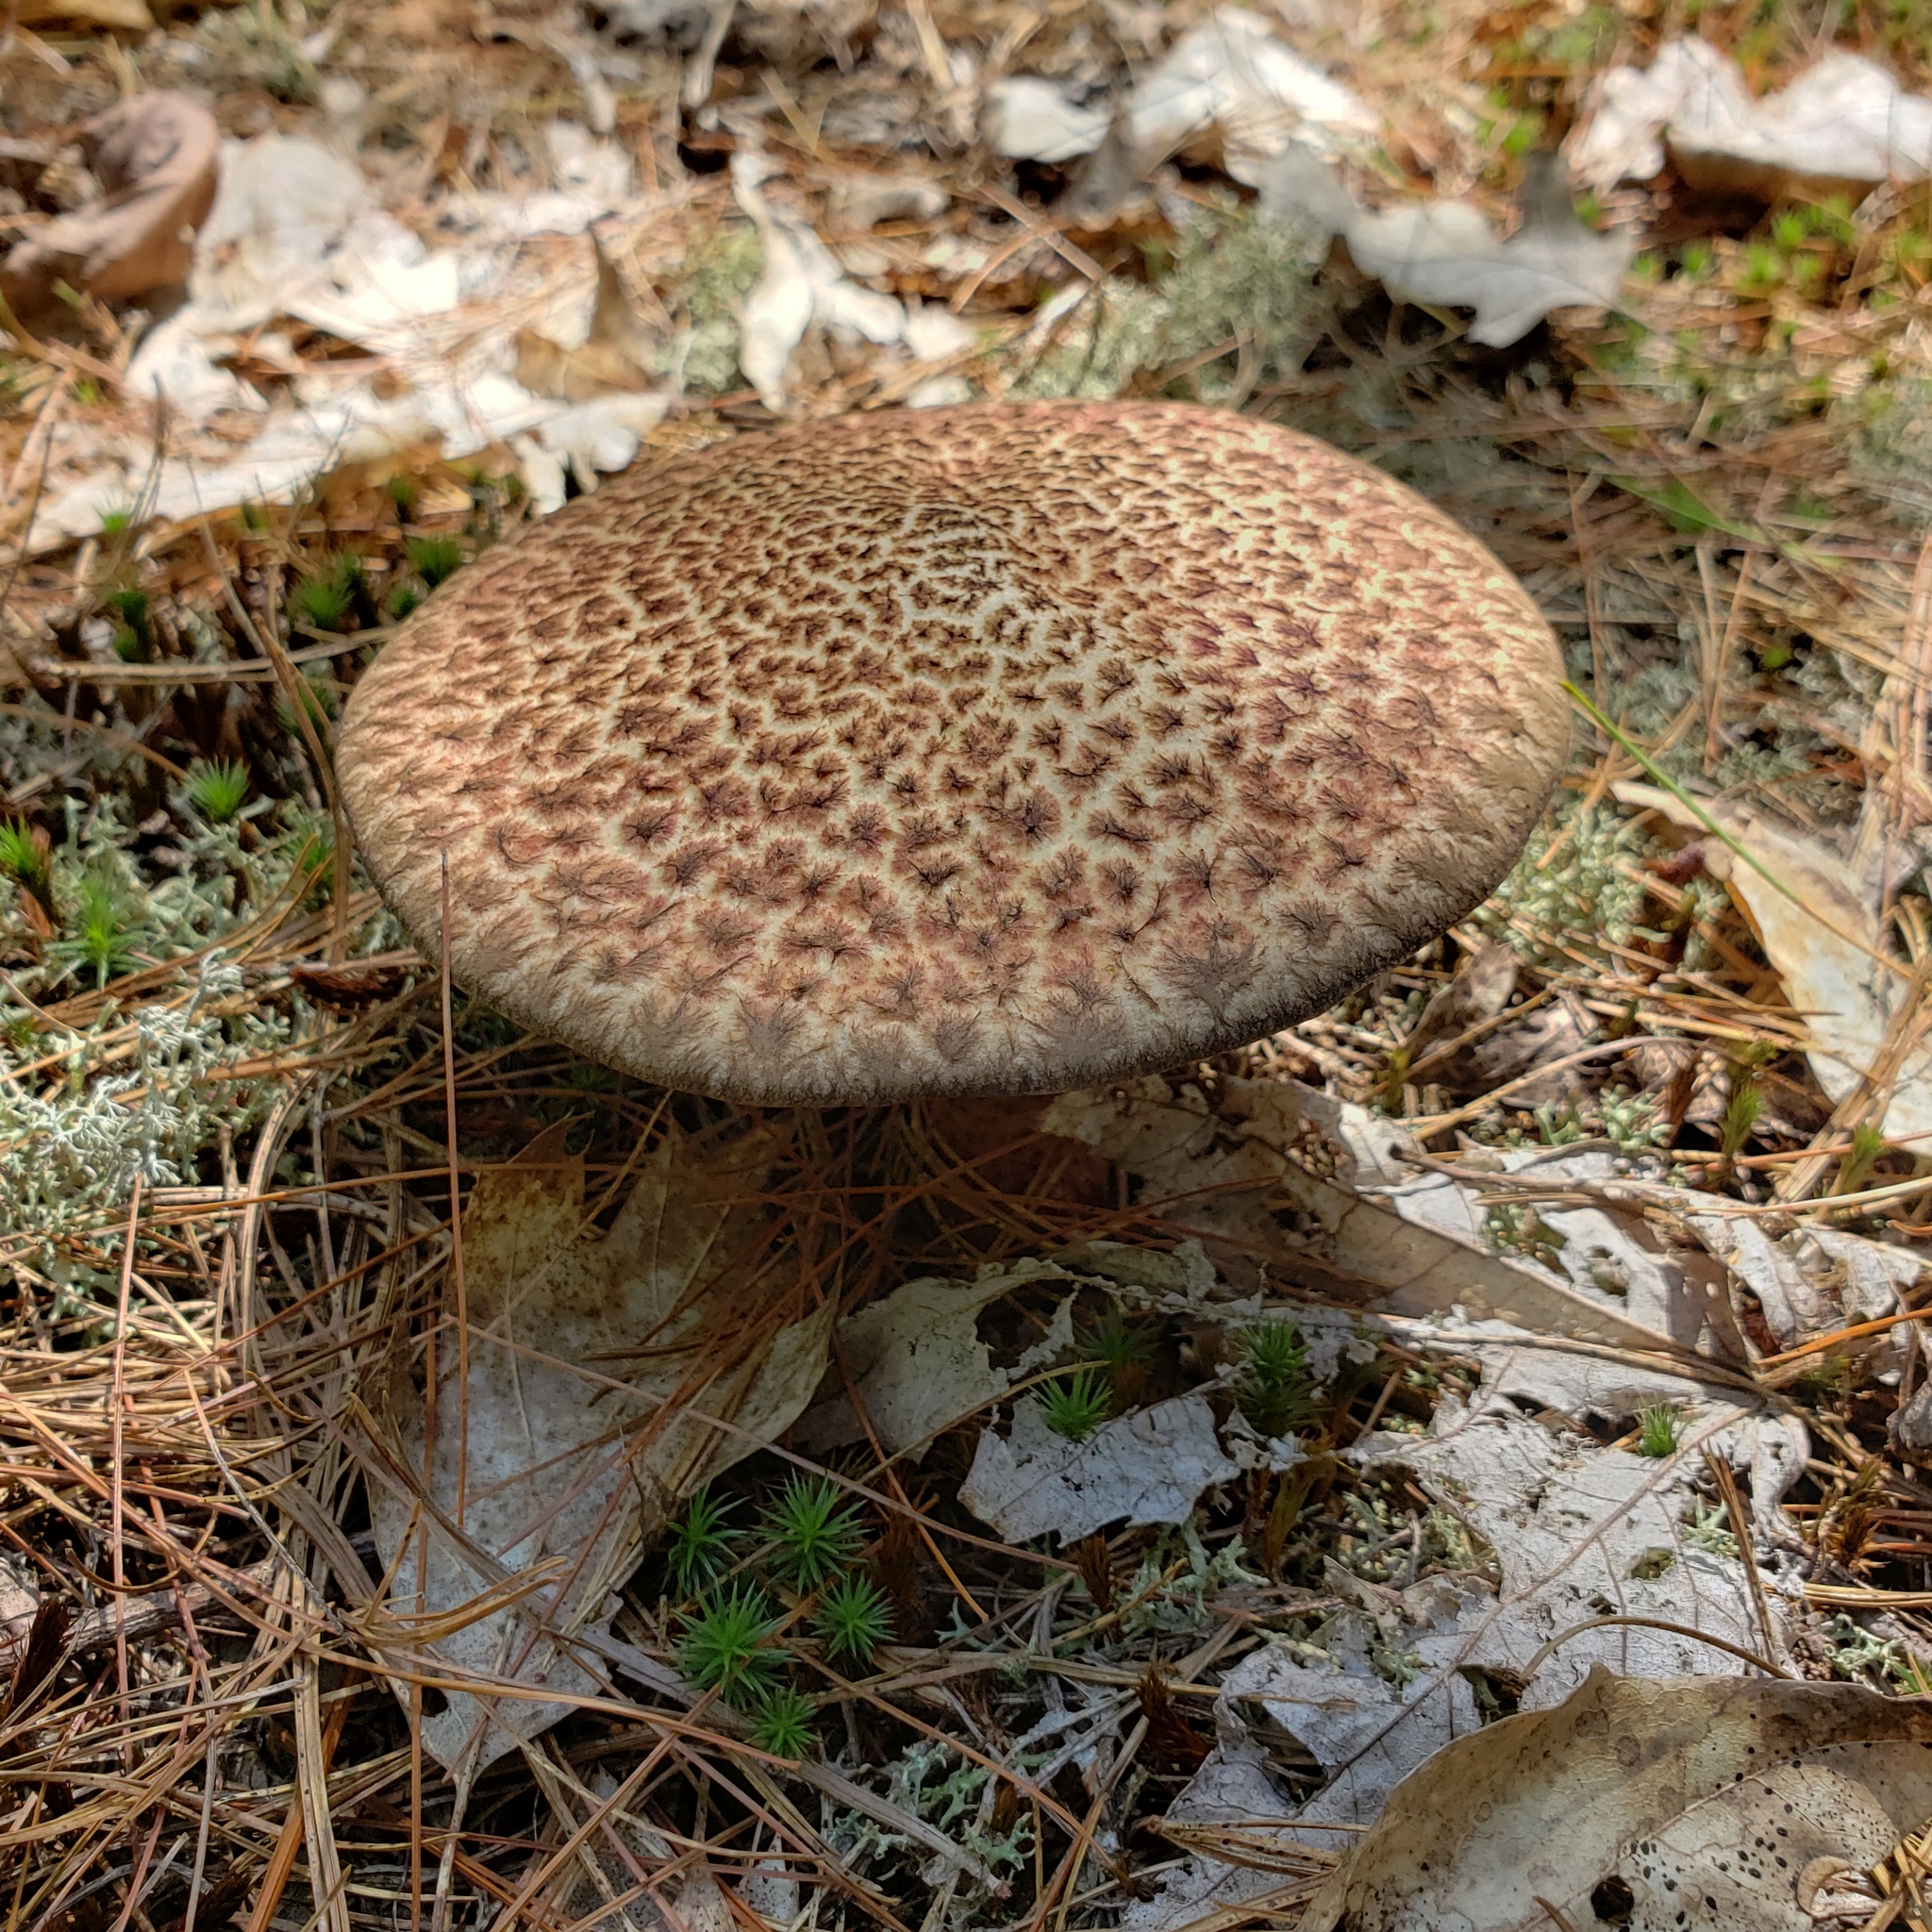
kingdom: Fungi
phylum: Basidiomycota
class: Agaricomycetes
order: Boletales
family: Suillaceae
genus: Suillus
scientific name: Suillus spraguei
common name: Painted suillus
